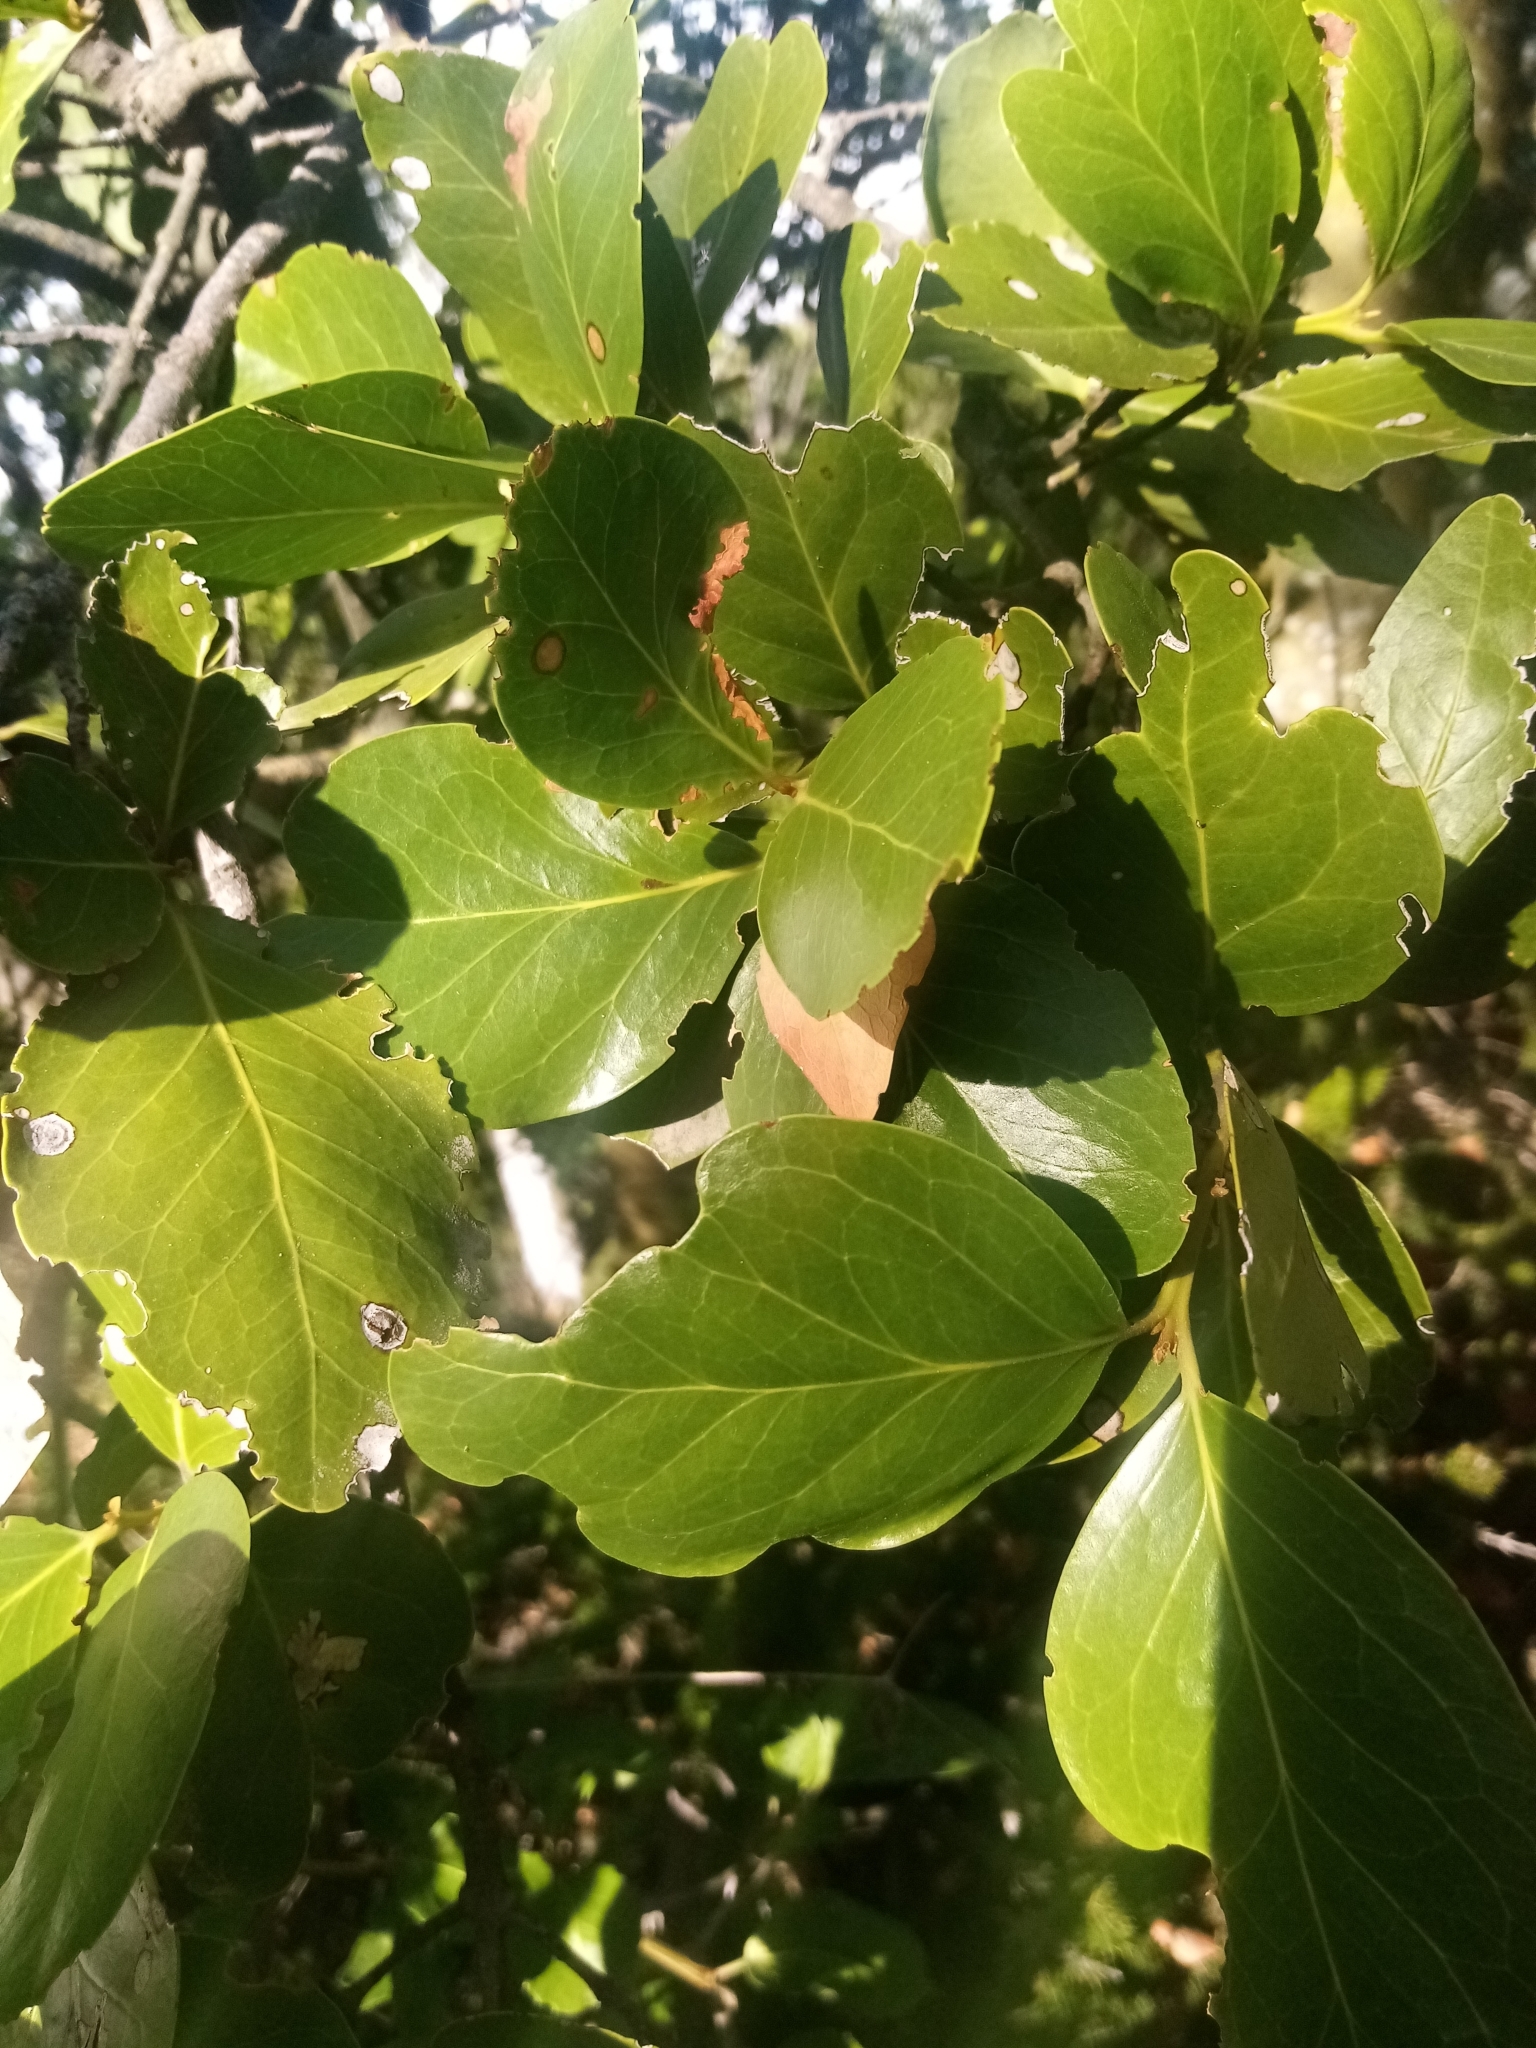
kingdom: Plantae
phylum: Tracheophyta
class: Magnoliopsida
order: Laurales
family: Lauraceae
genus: Beilschmiedia
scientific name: Beilschmiedia berteroana
